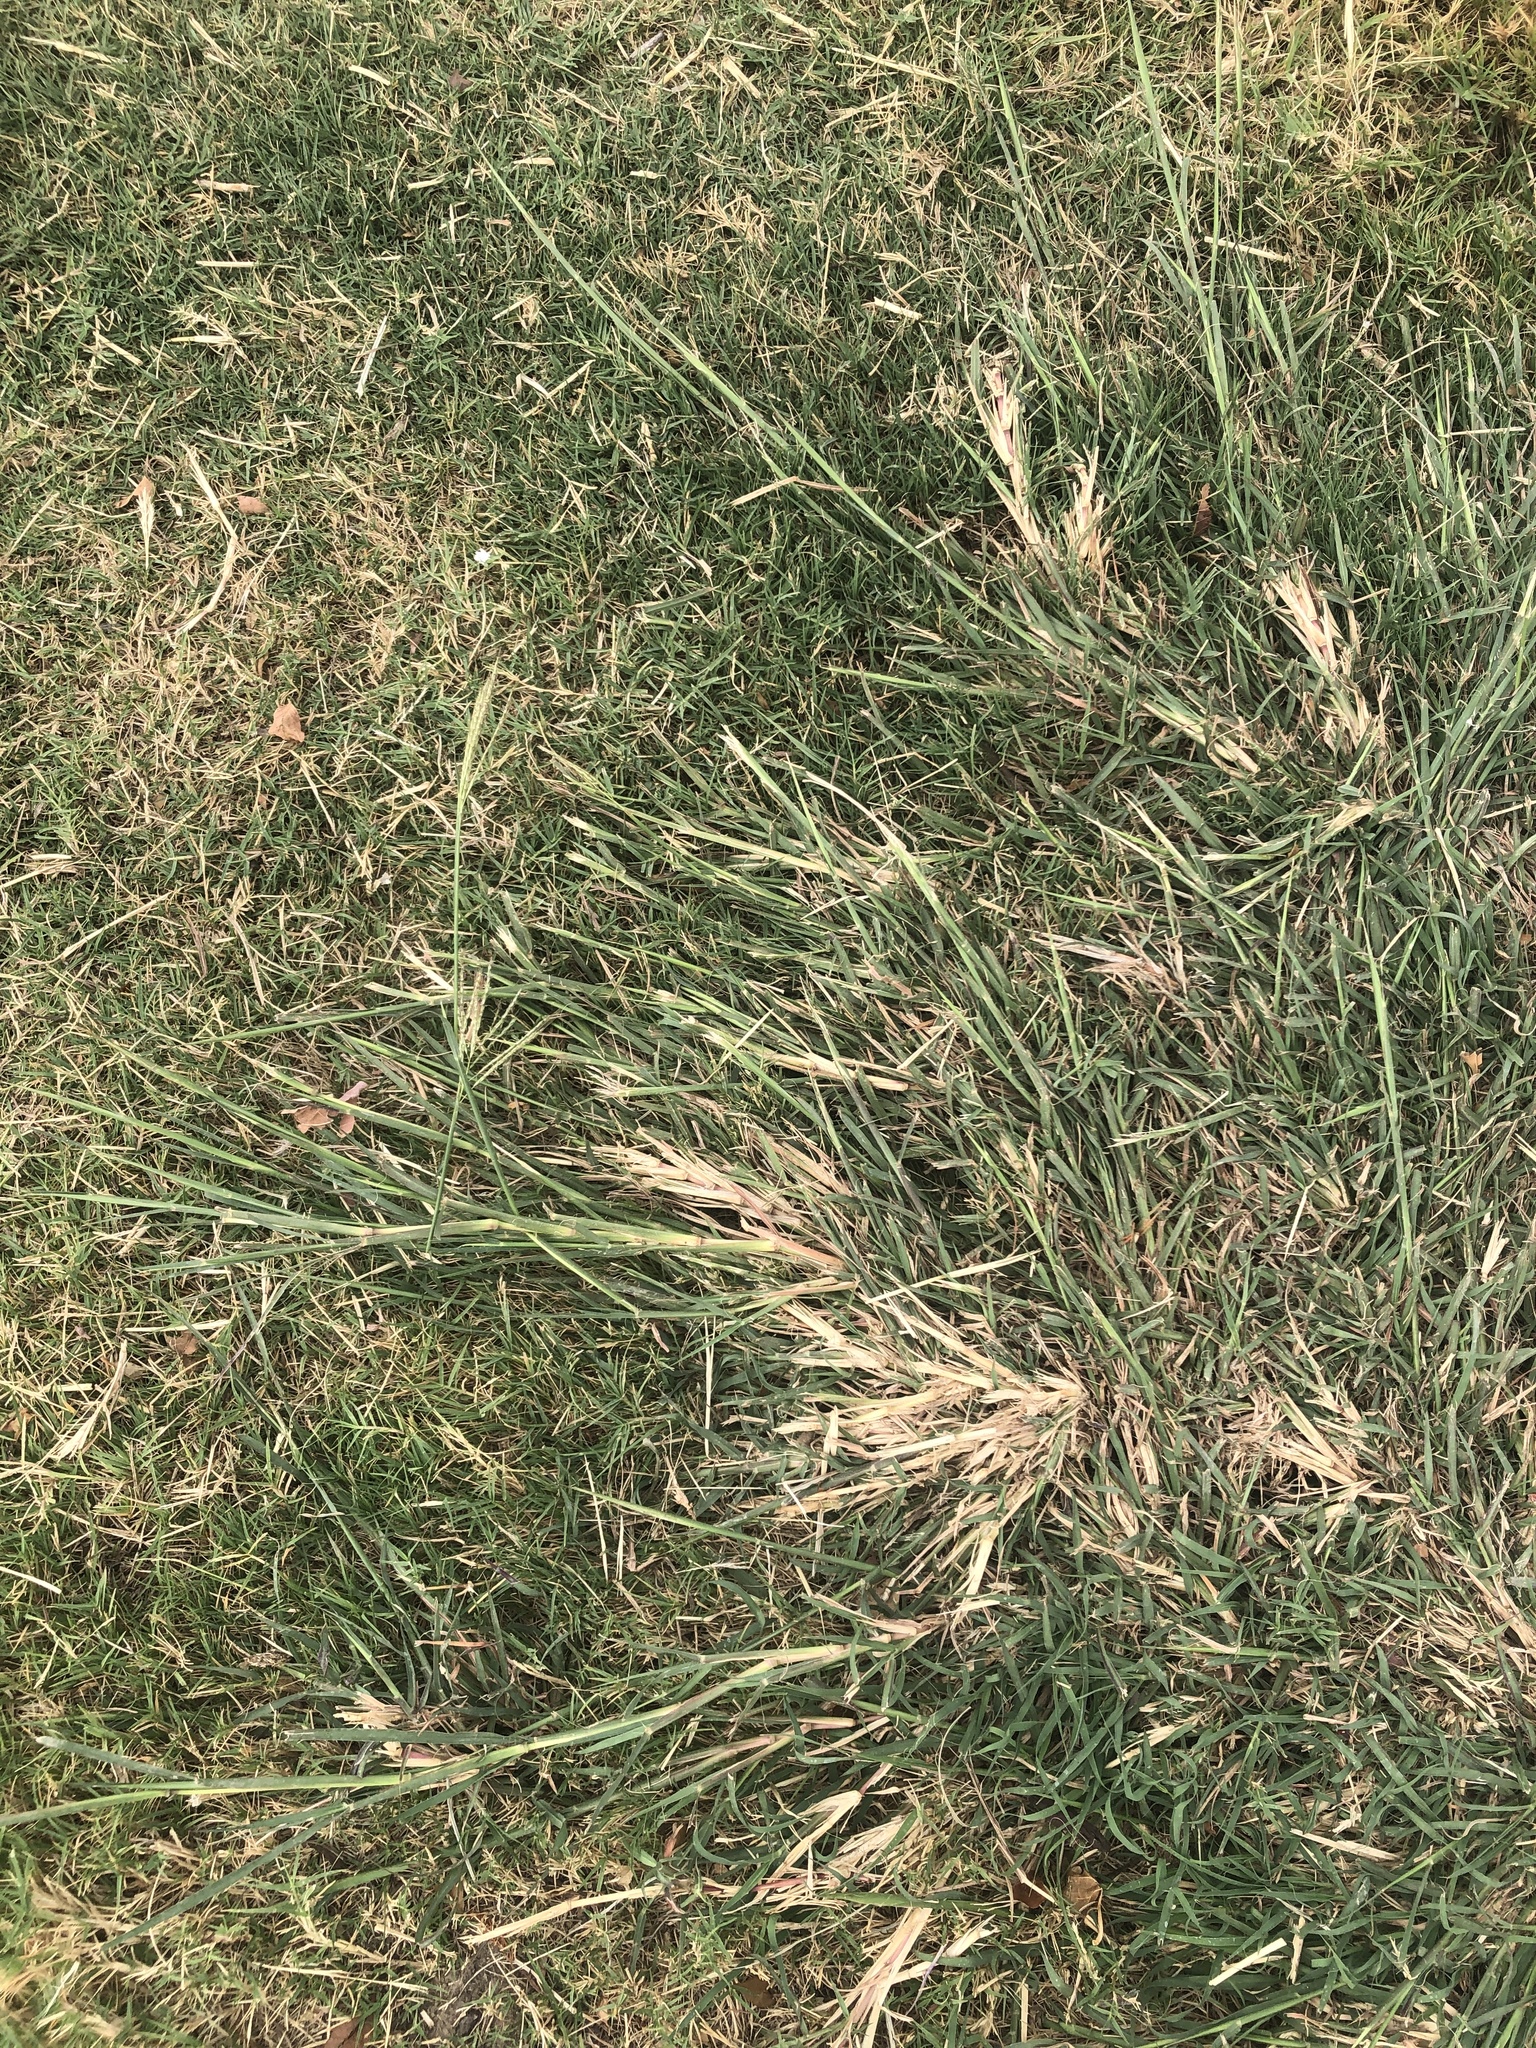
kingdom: Plantae
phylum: Tracheophyta
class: Liliopsida
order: Poales
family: Poaceae
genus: Bothriochloa
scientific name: Bothriochloa ischaemum
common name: Yellow bluestem
